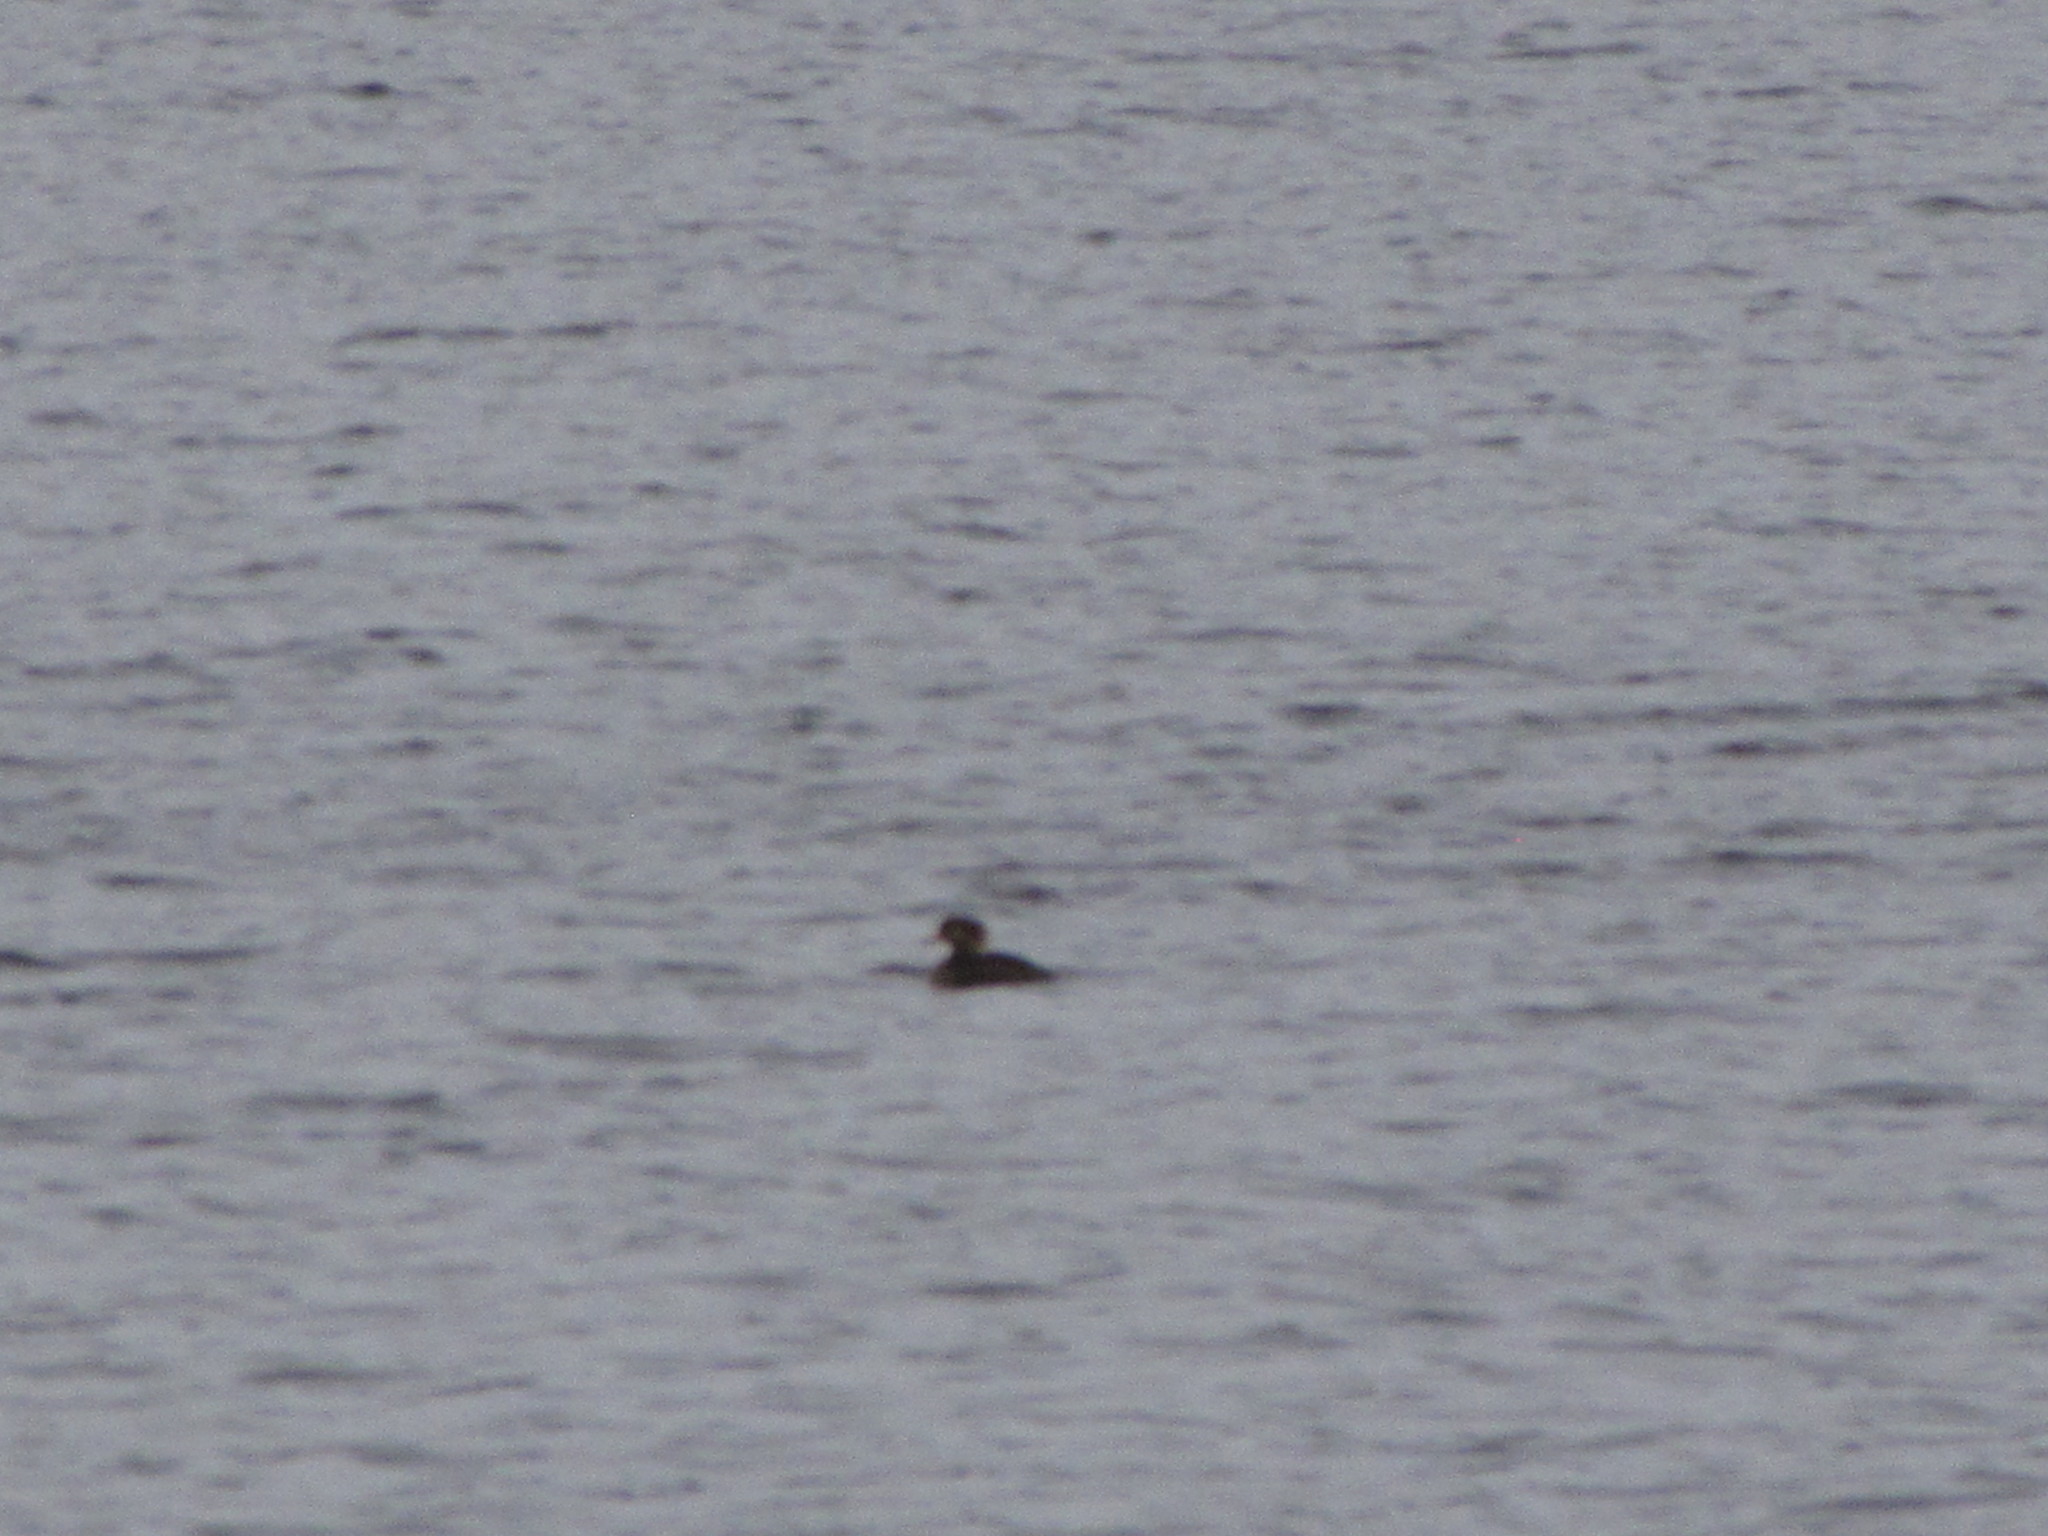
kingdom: Animalia
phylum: Chordata
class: Aves
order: Anseriformes
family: Anatidae
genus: Mergus
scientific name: Mergus merganser
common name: Common merganser
